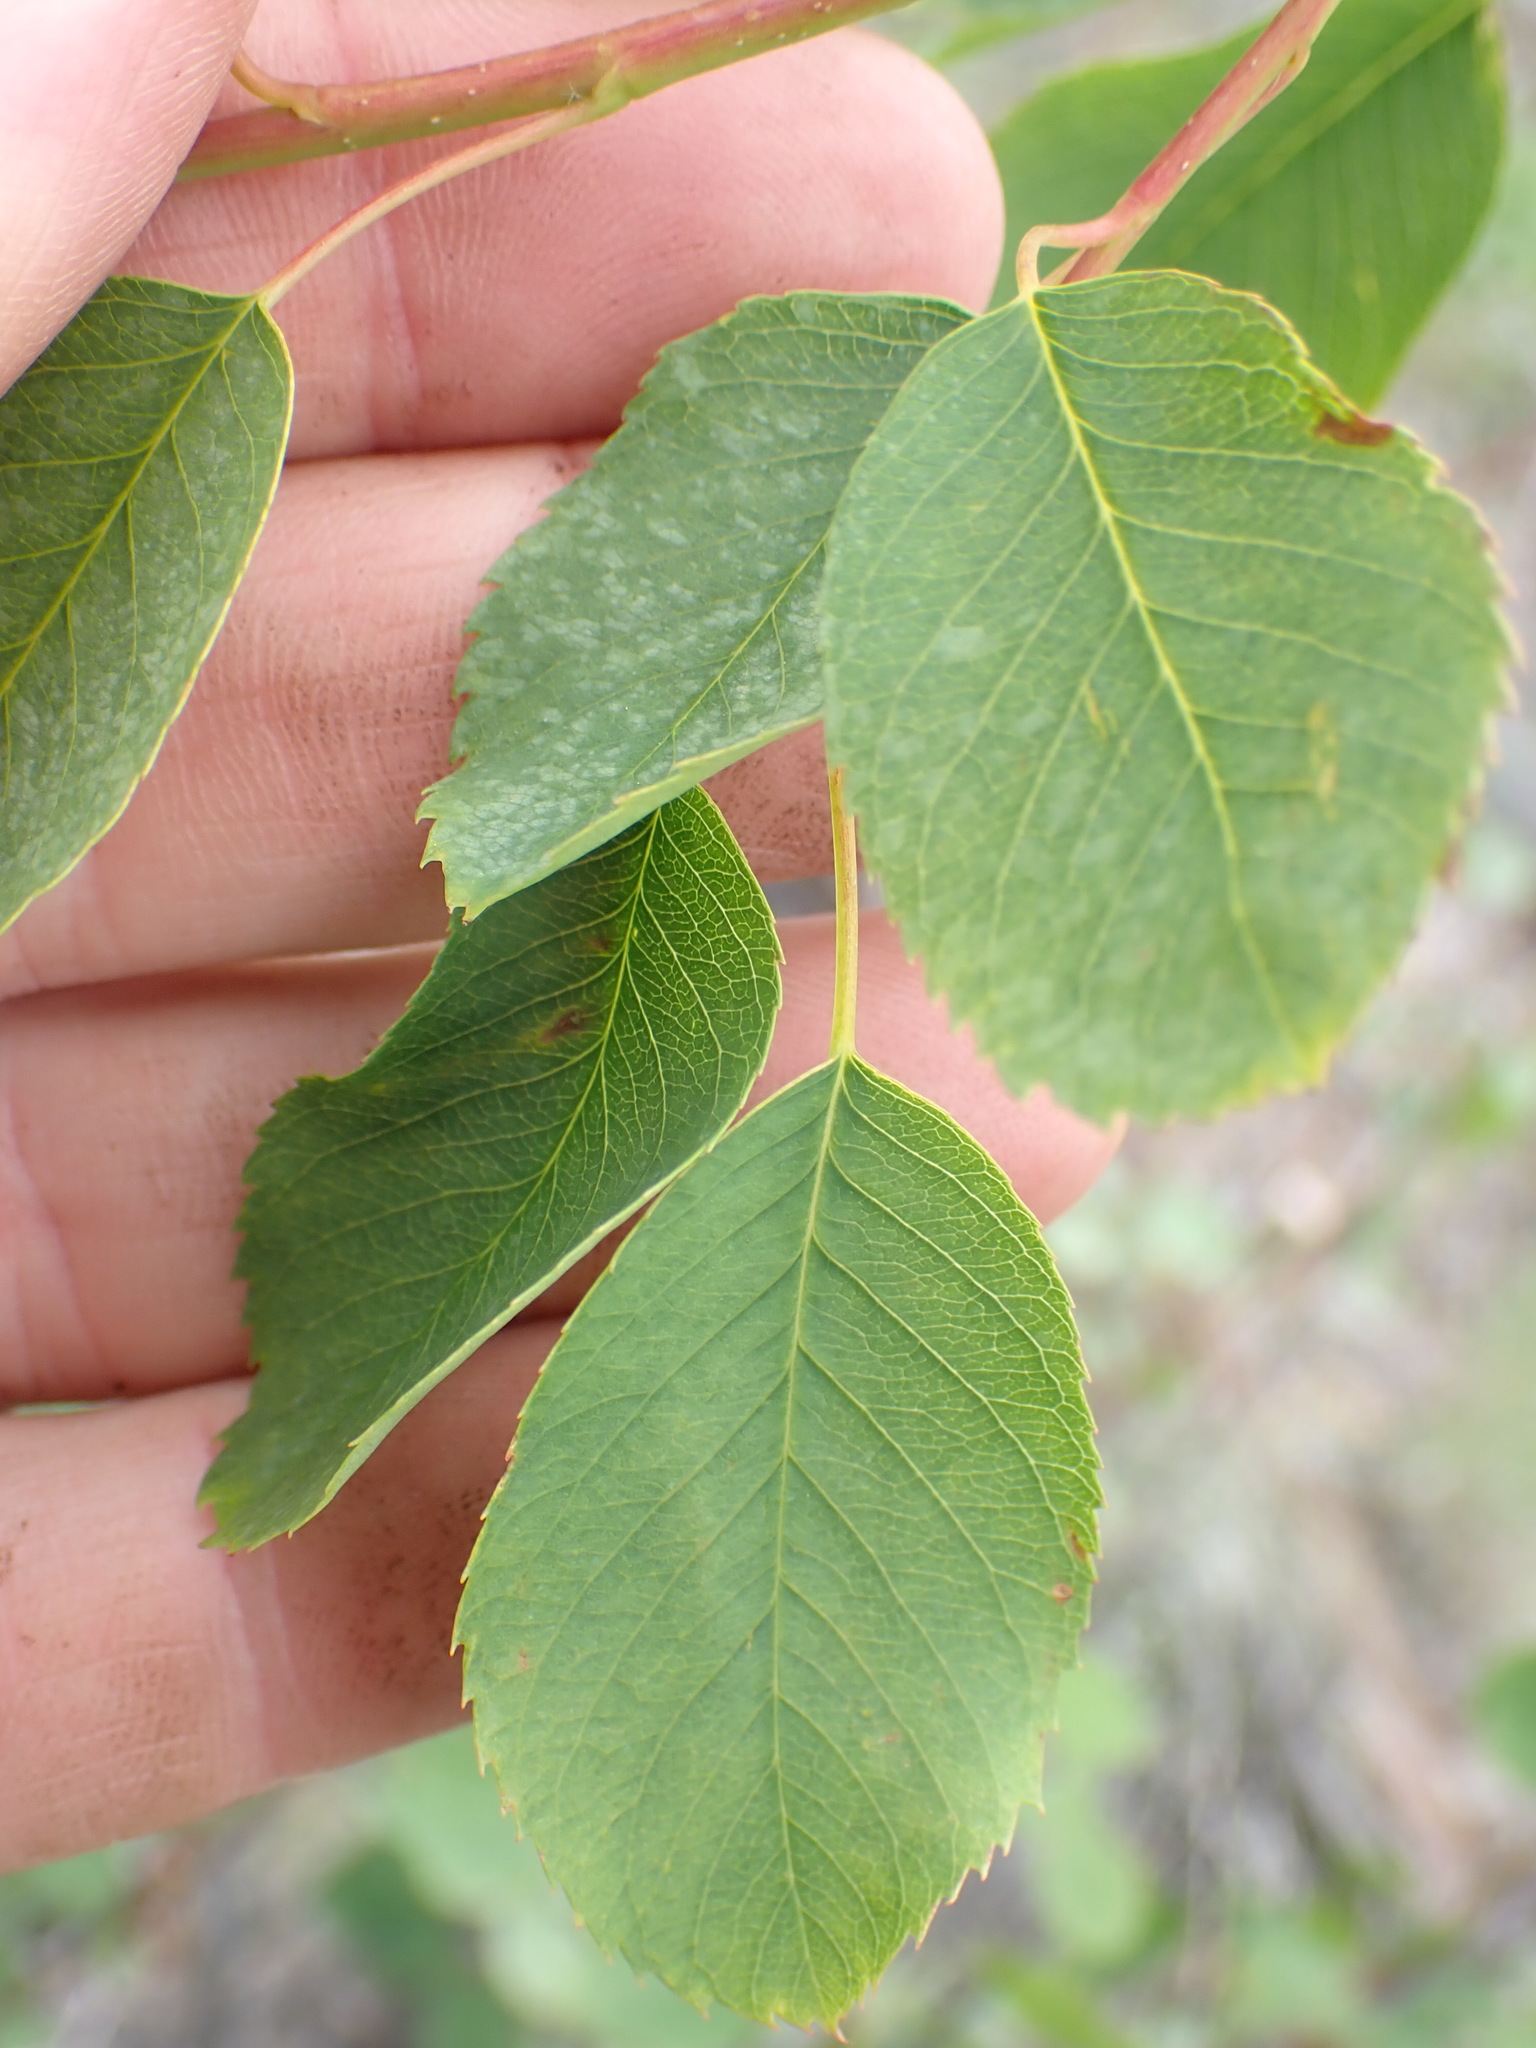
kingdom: Plantae
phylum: Tracheophyta
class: Magnoliopsida
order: Rosales
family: Rosaceae
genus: Amelanchier
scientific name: Amelanchier alnifolia
